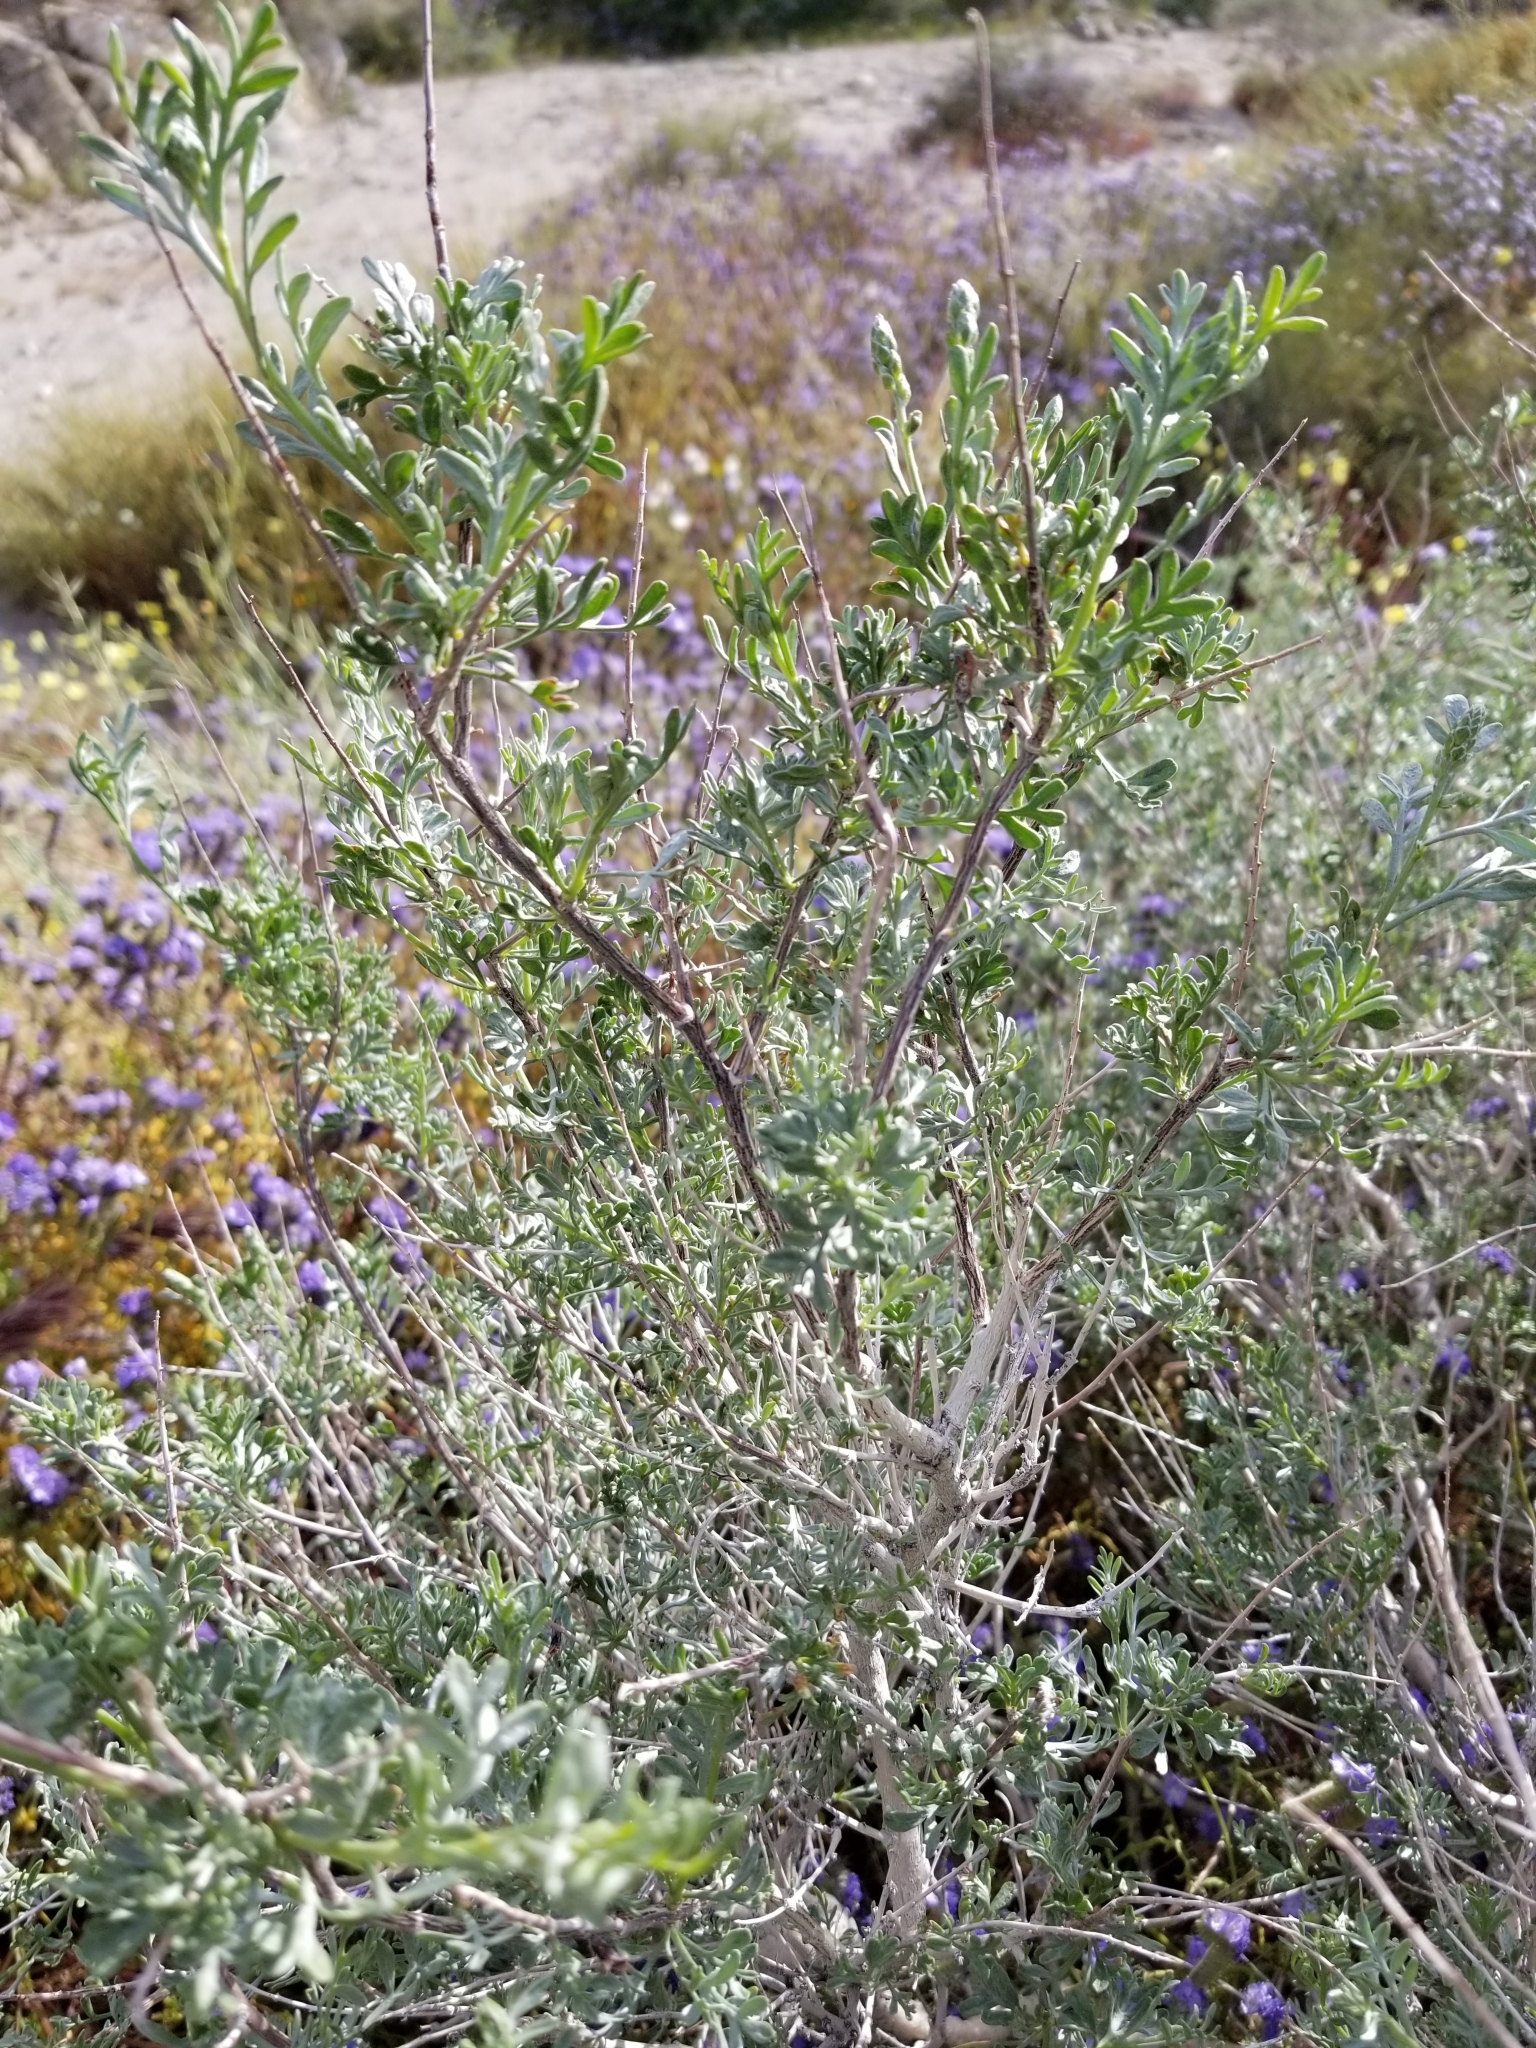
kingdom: Plantae
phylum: Tracheophyta
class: Magnoliopsida
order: Fabales
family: Fabaceae
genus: Psorothamnus
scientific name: Psorothamnus arborescens
